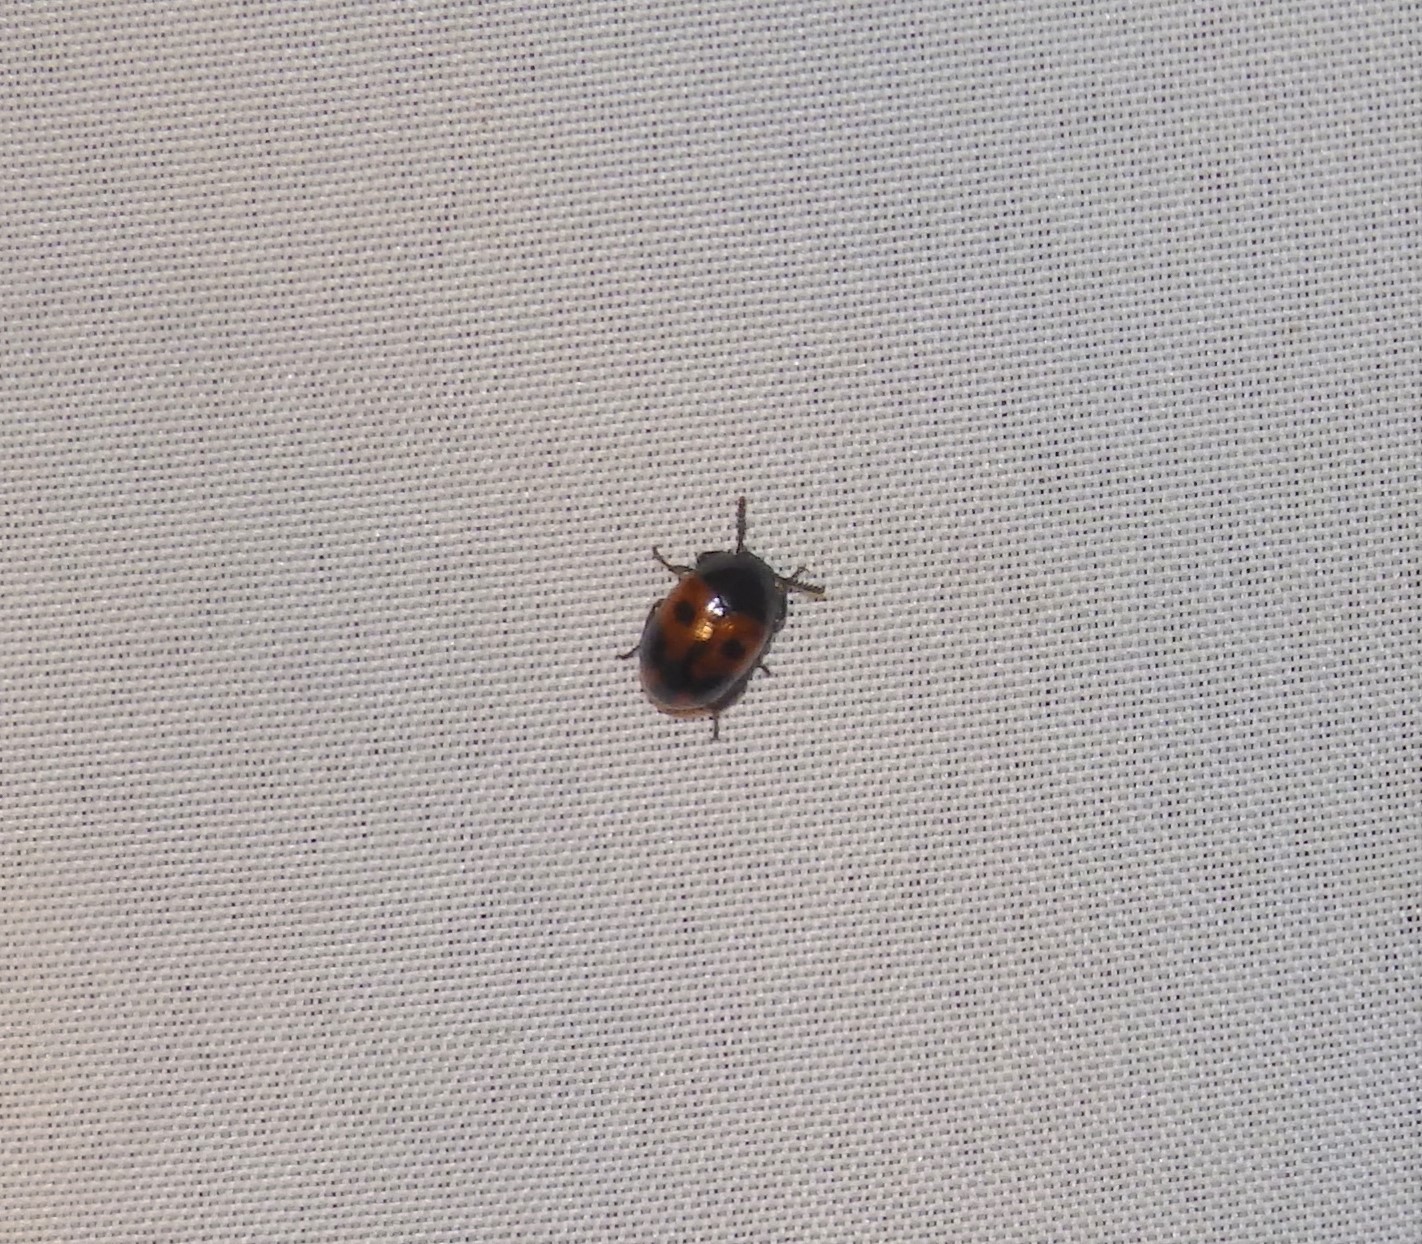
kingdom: Animalia
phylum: Arthropoda
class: Insecta
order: Coleoptera
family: Tenebrionidae
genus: Diaperis
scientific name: Diaperis maculata
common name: Darkling beetle
